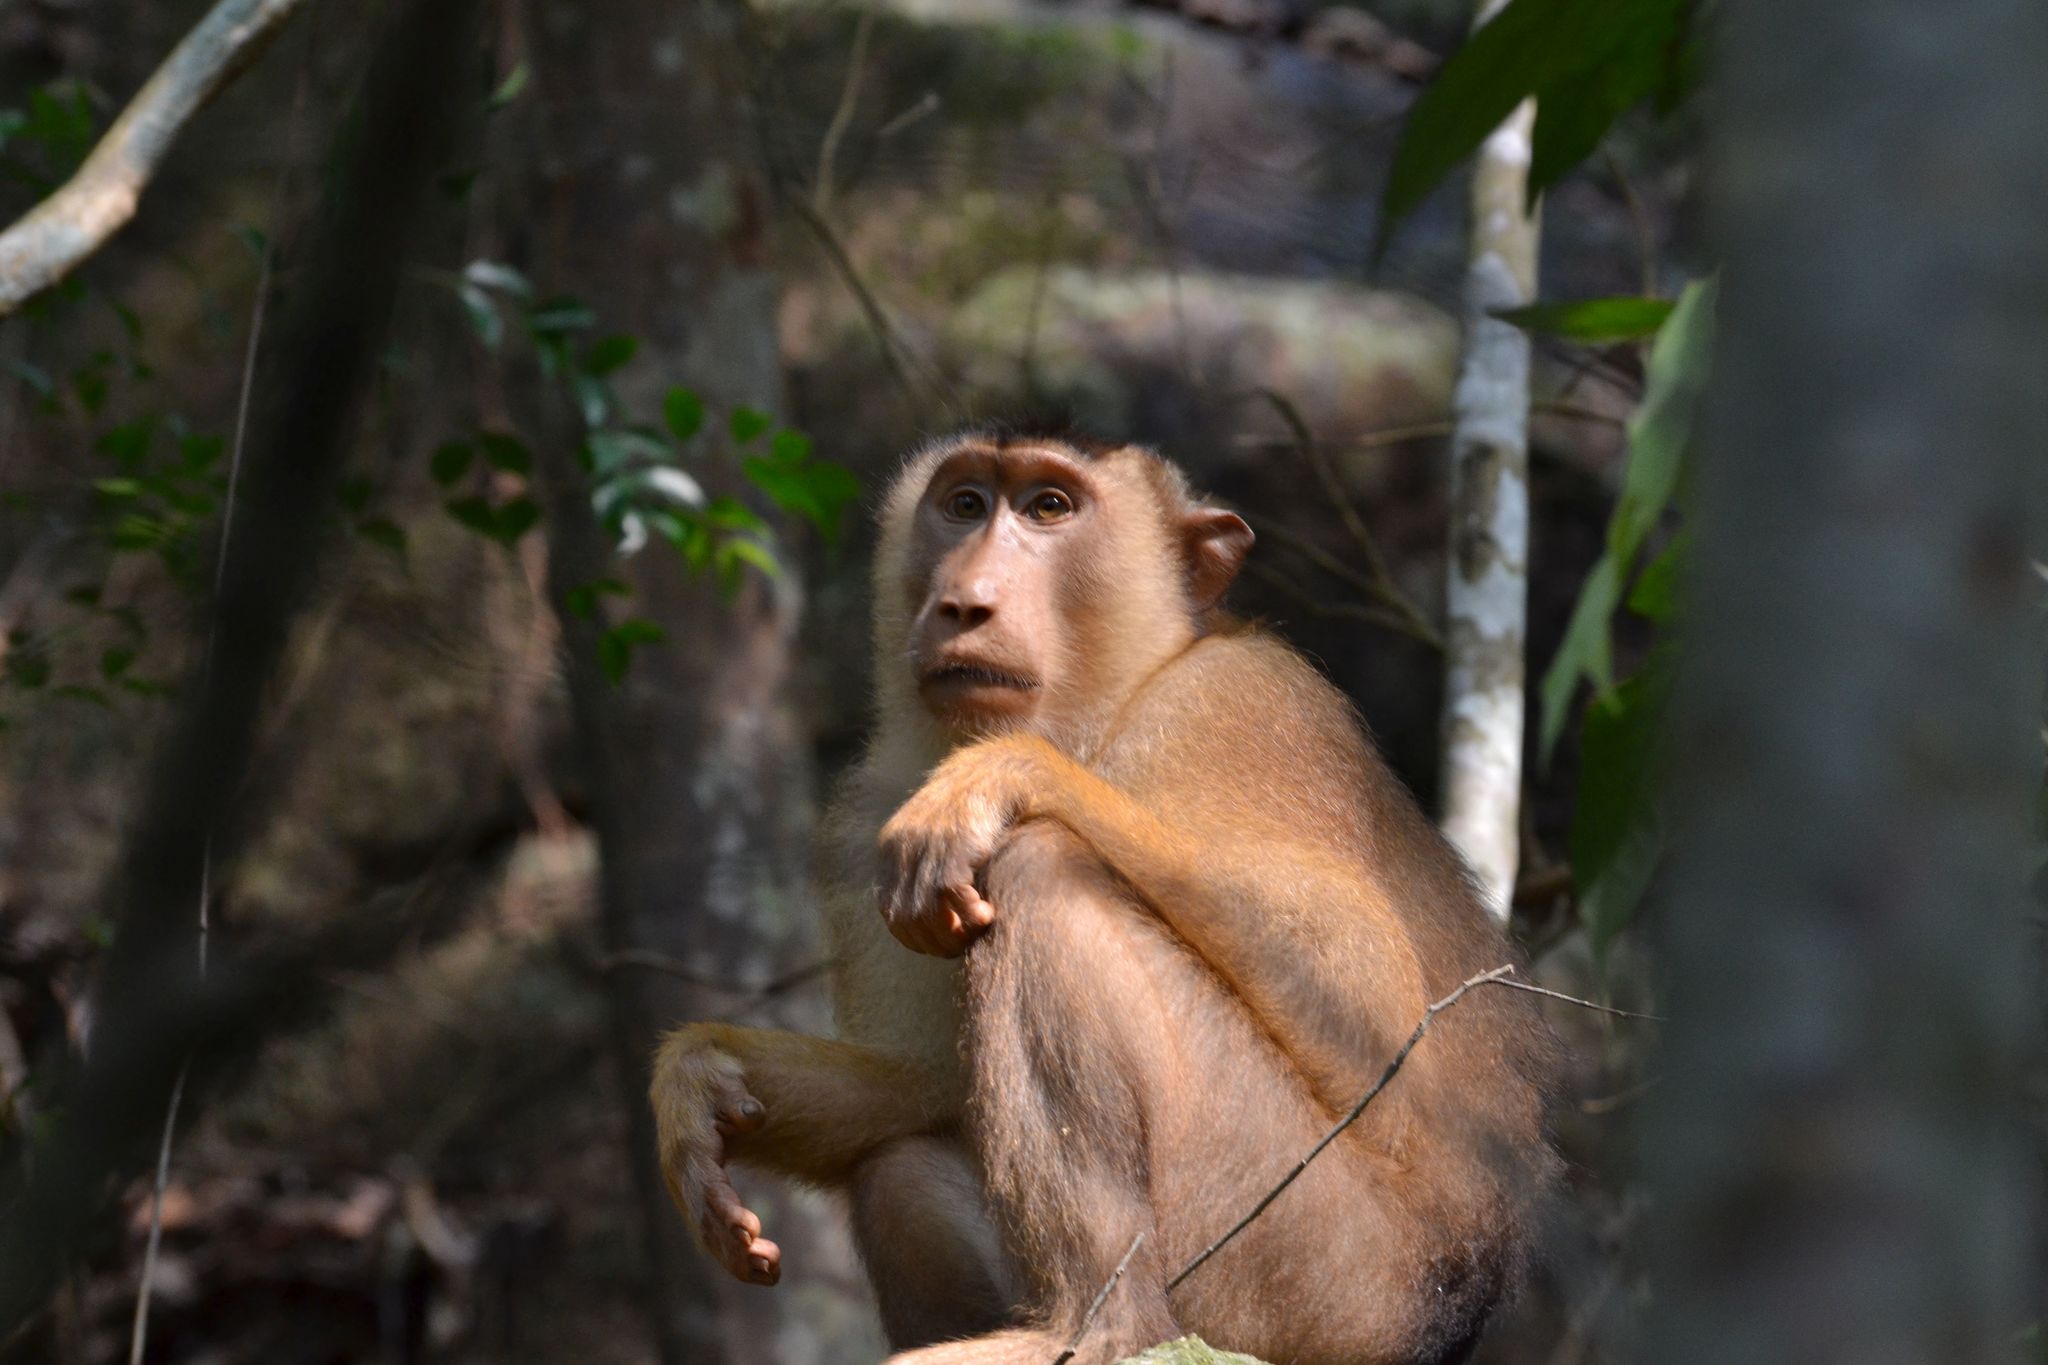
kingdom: Animalia
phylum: Chordata
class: Mammalia
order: Primates
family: Cercopithecidae
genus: Macaca
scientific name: Macaca nemestrina
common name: Southern pig-tailed macaque
